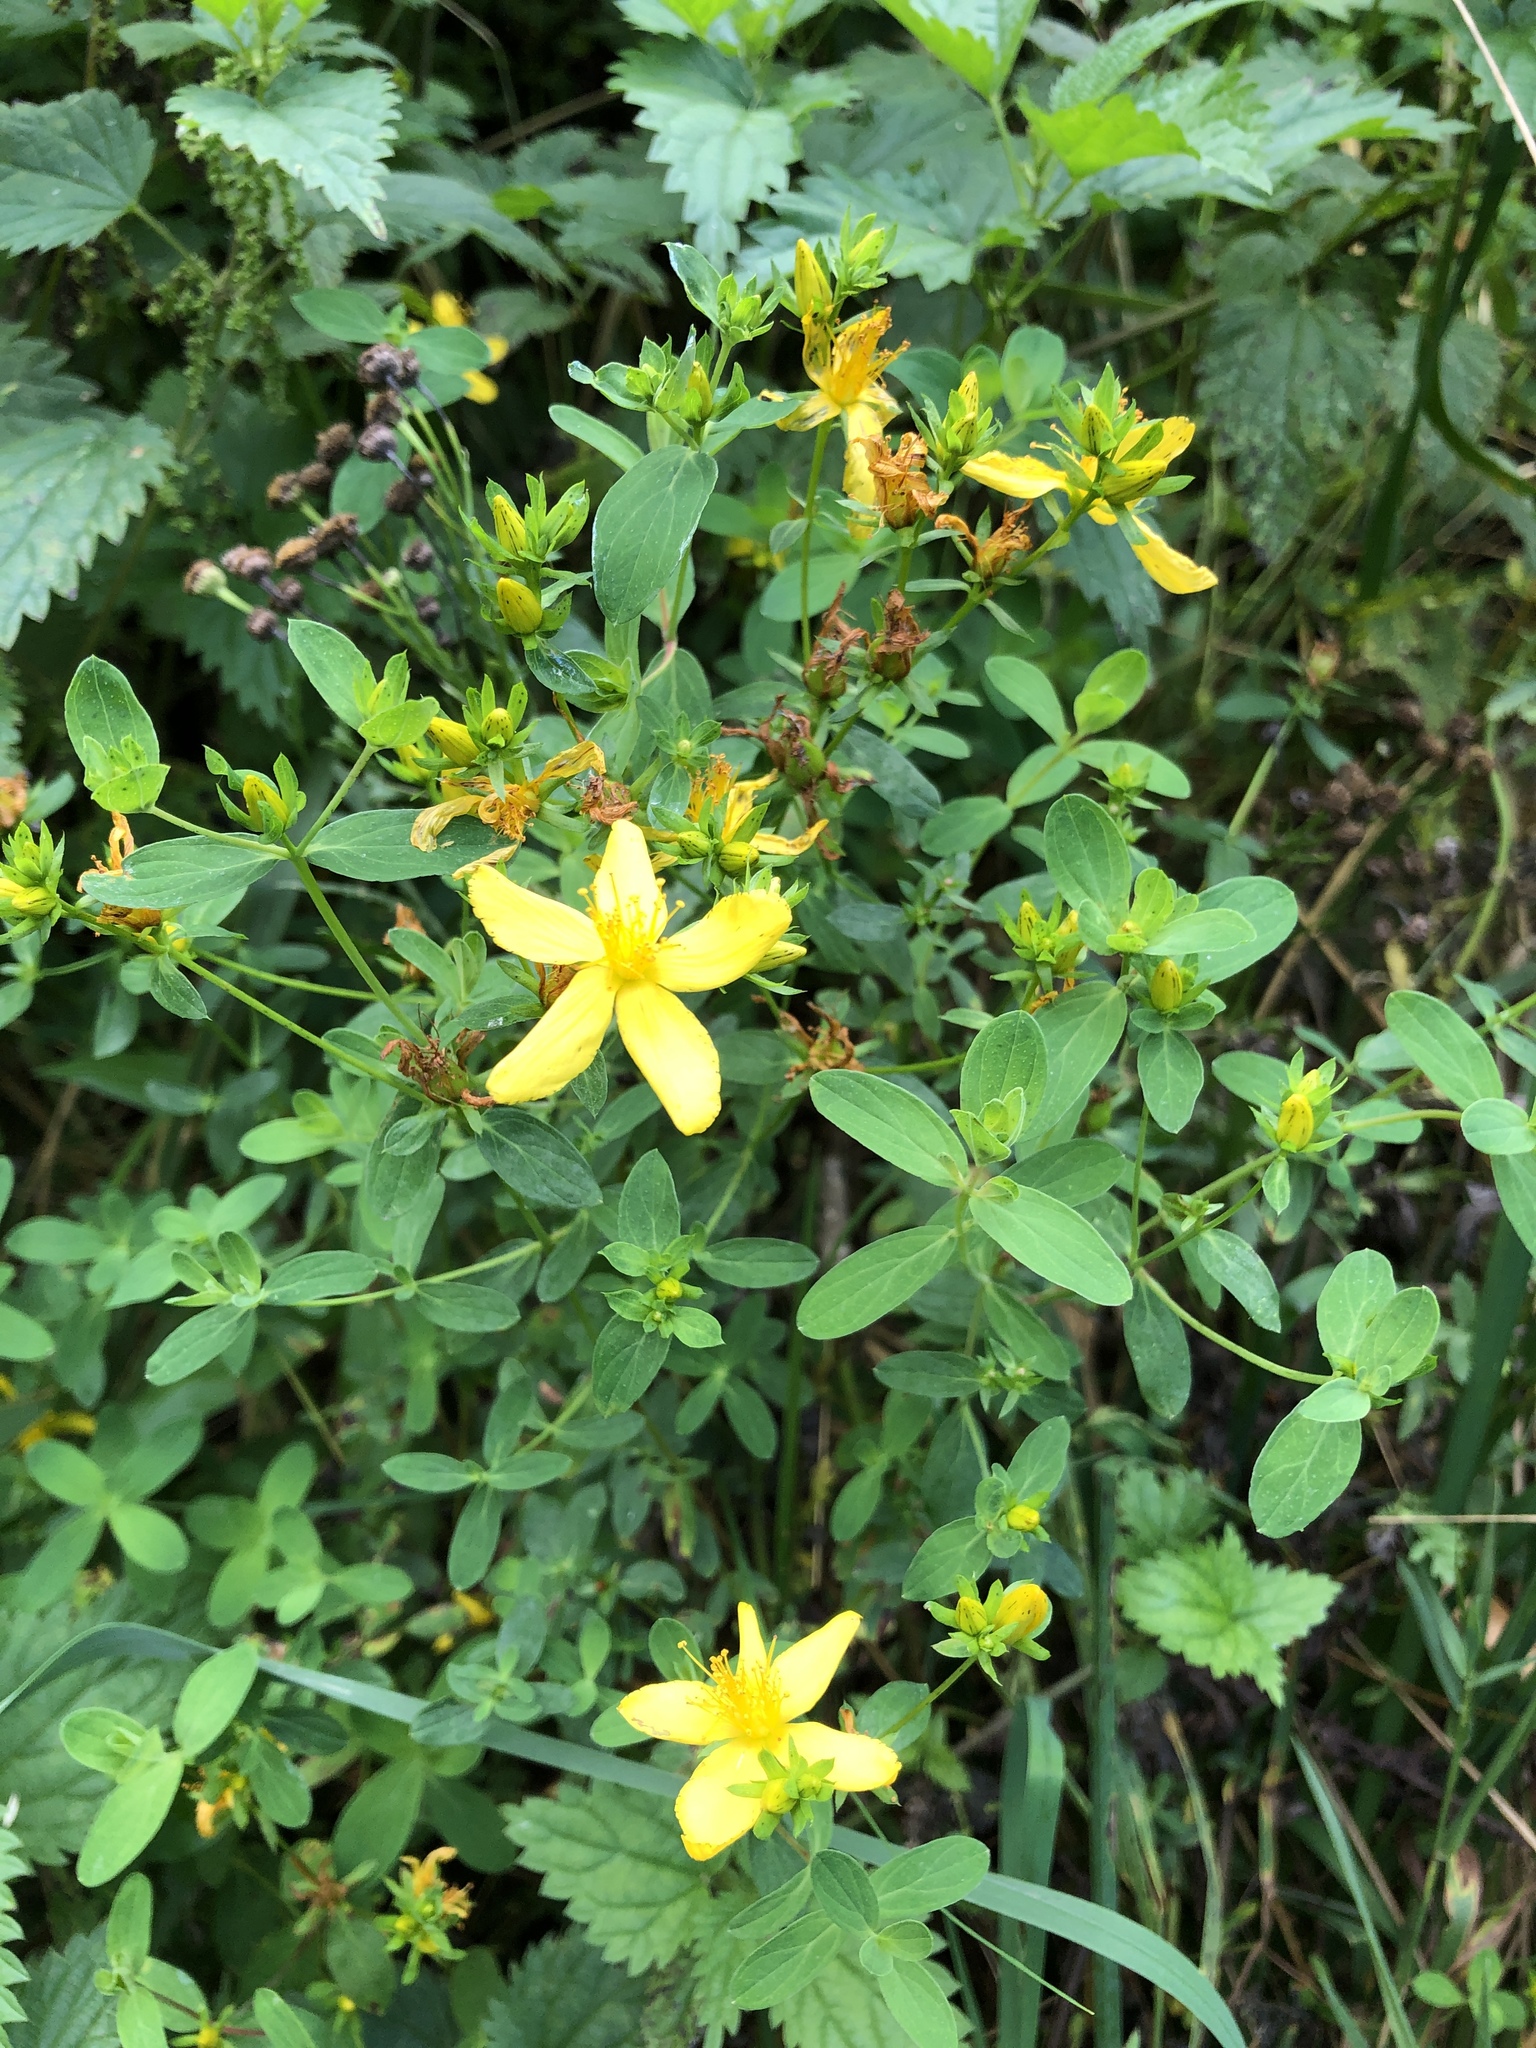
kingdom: Plantae
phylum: Tracheophyta
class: Magnoliopsida
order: Malpighiales
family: Hypericaceae
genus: Hypericum
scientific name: Hypericum perforatum
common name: Common st. johnswort
